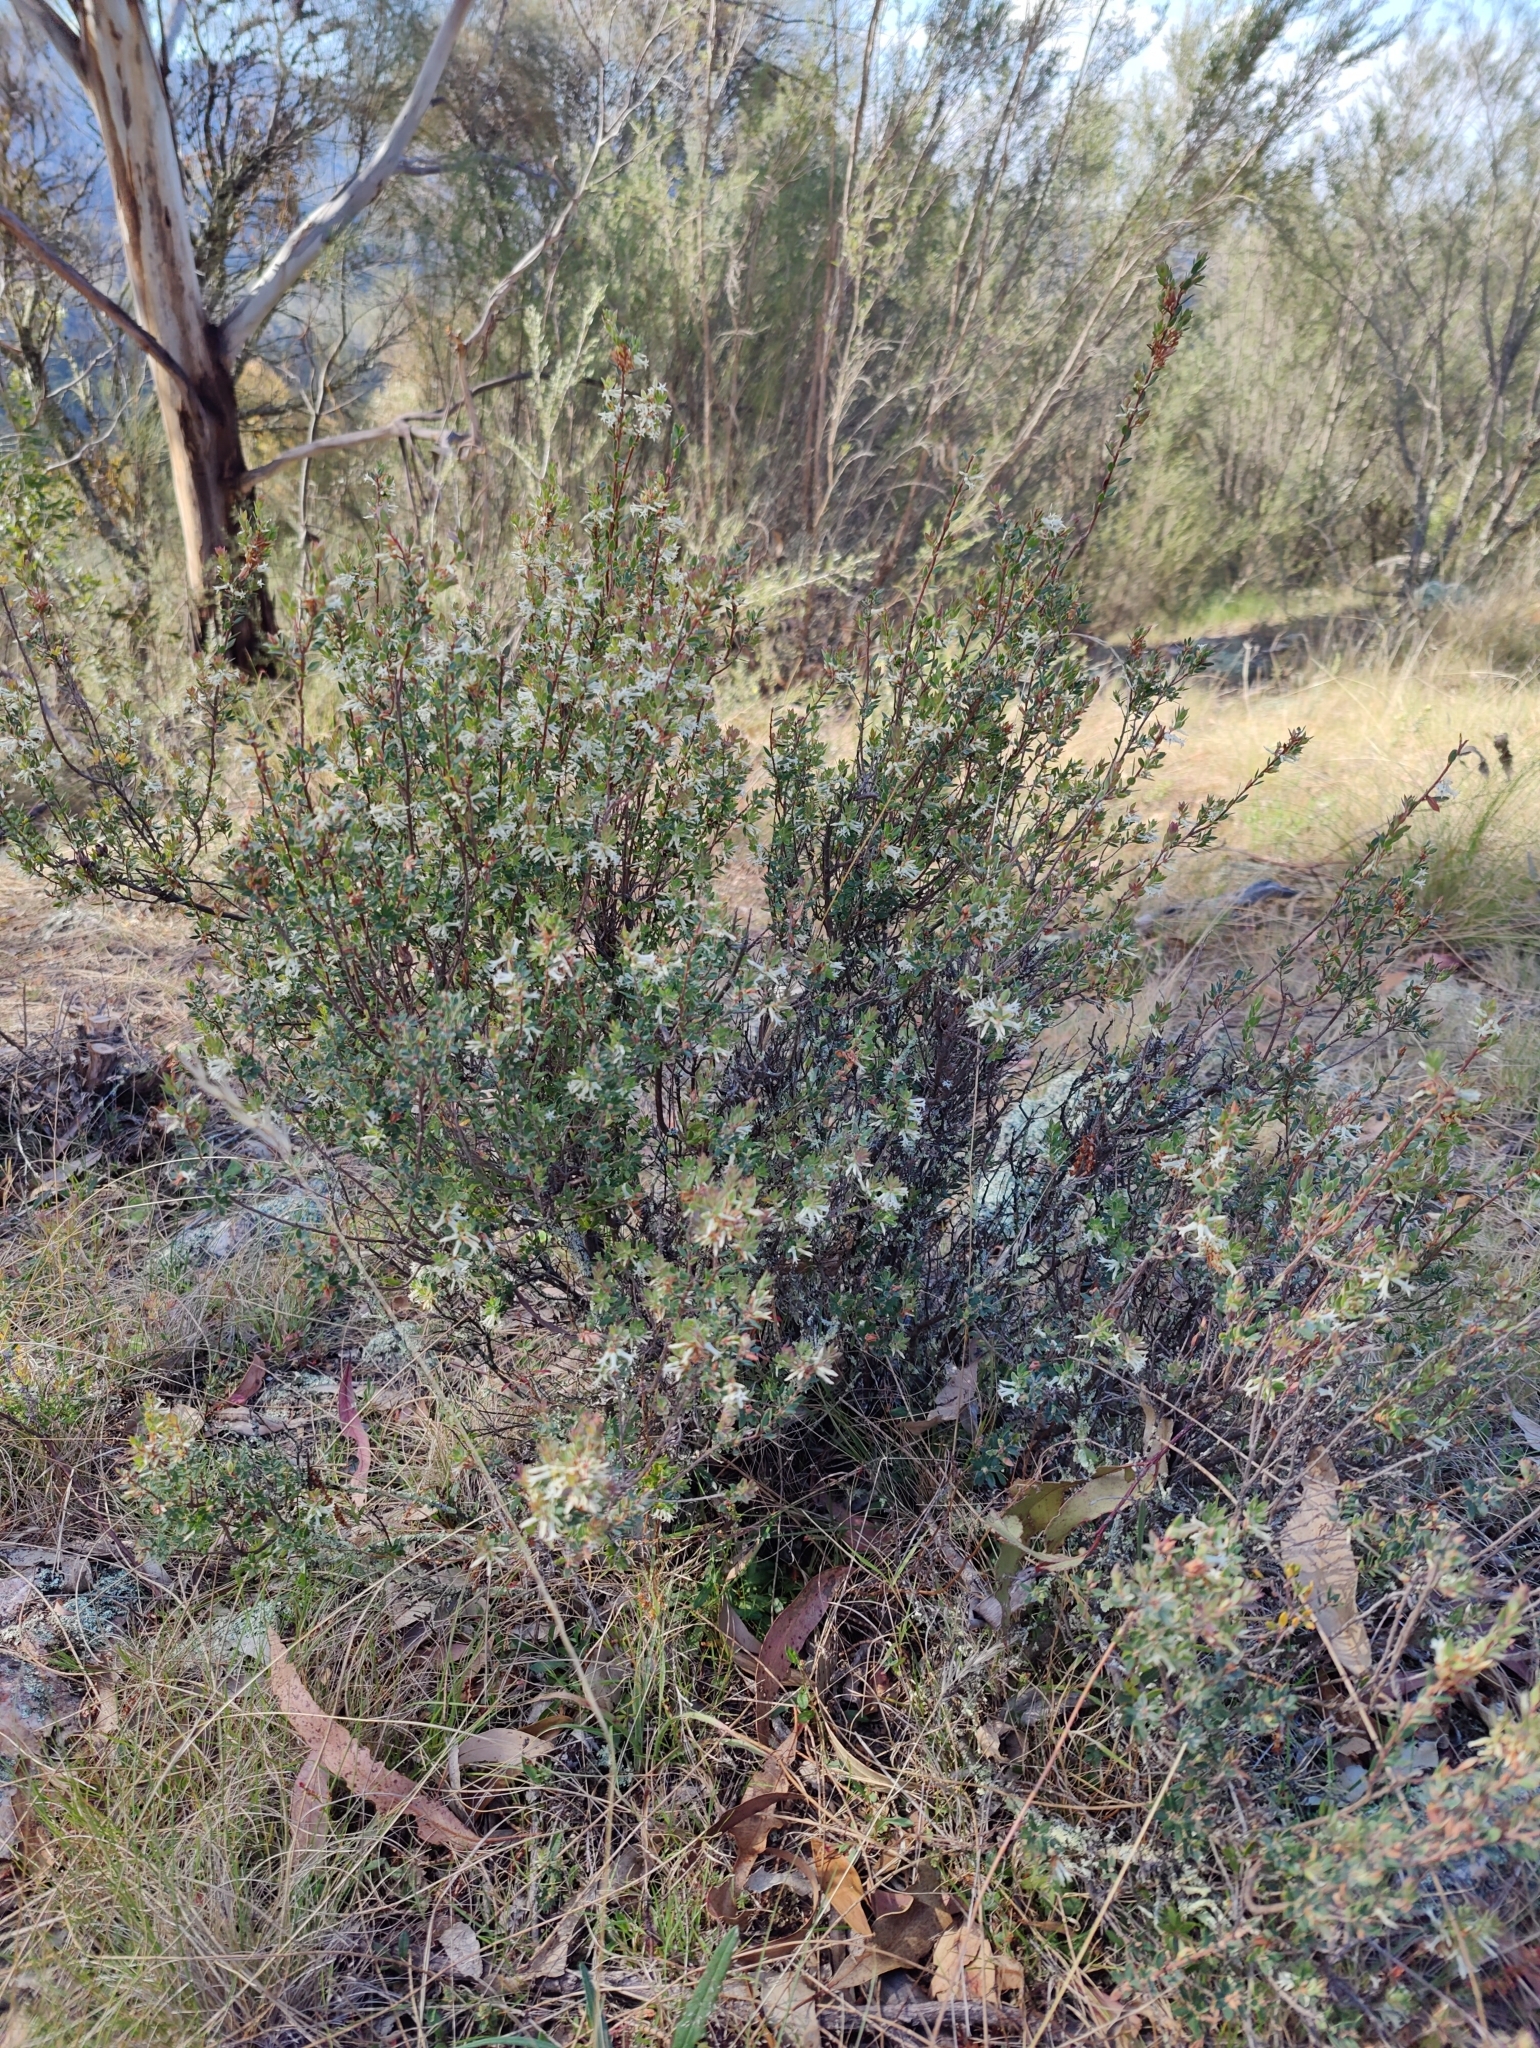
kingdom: Plantae
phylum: Tracheophyta
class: Magnoliopsida
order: Ericales
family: Ericaceae
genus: Brachyloma
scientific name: Brachyloma daphnoides
